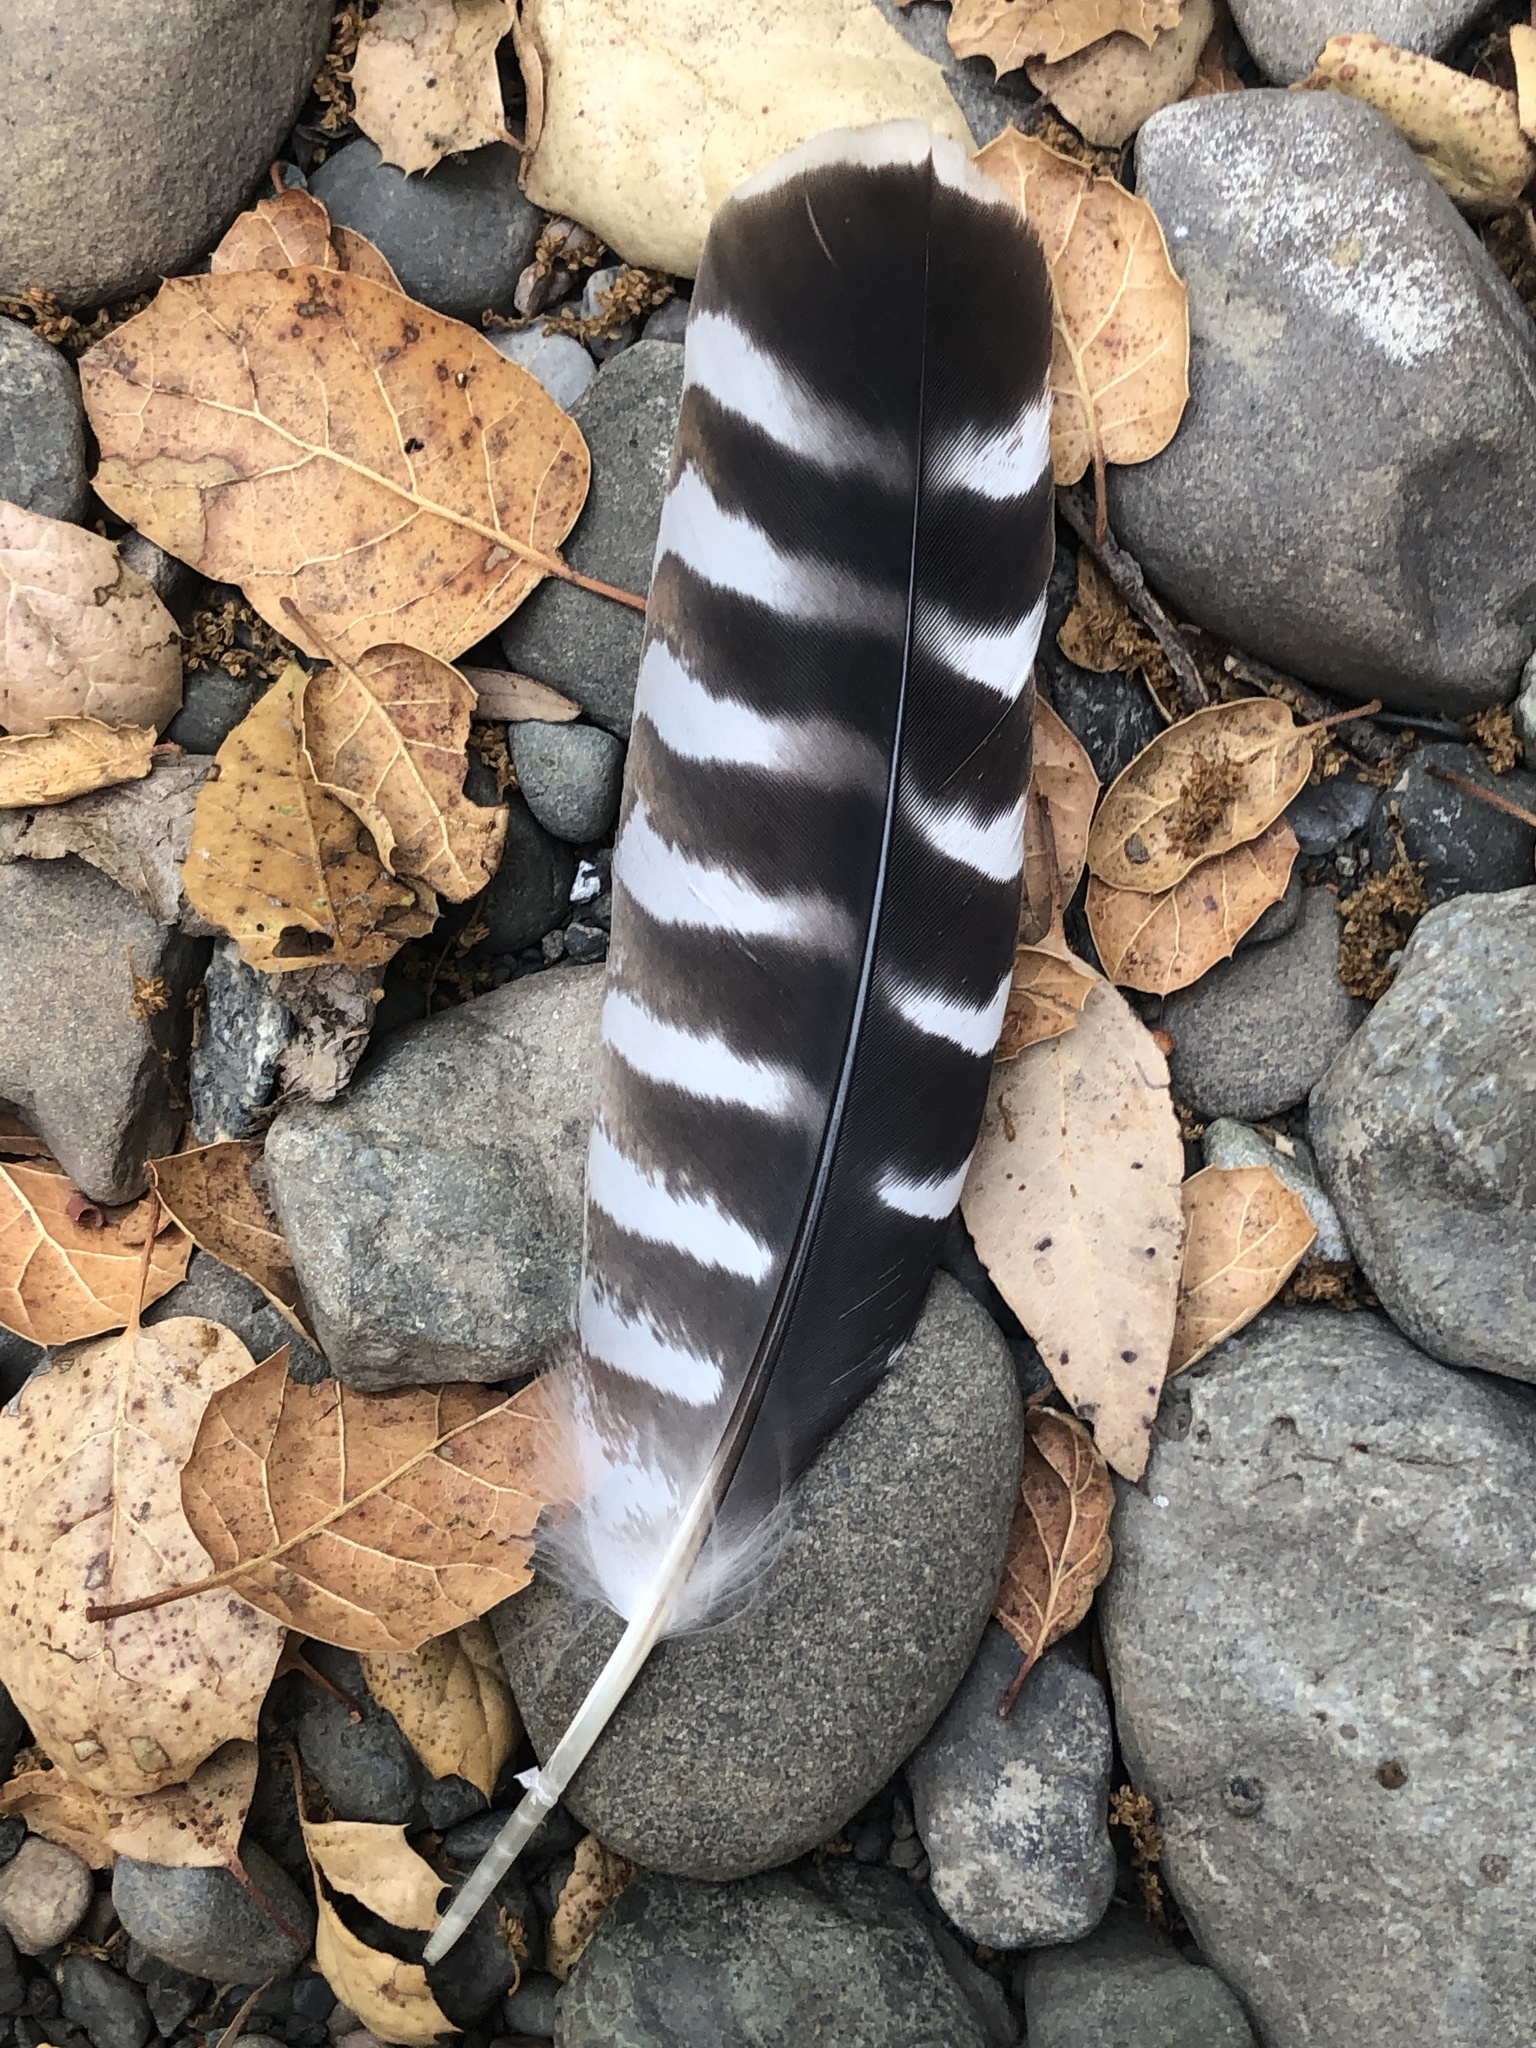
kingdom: Animalia
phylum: Chordata
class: Aves
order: Accipitriformes
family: Accipitridae
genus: Buteo
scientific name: Buteo lineatus
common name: Red-shouldered hawk
